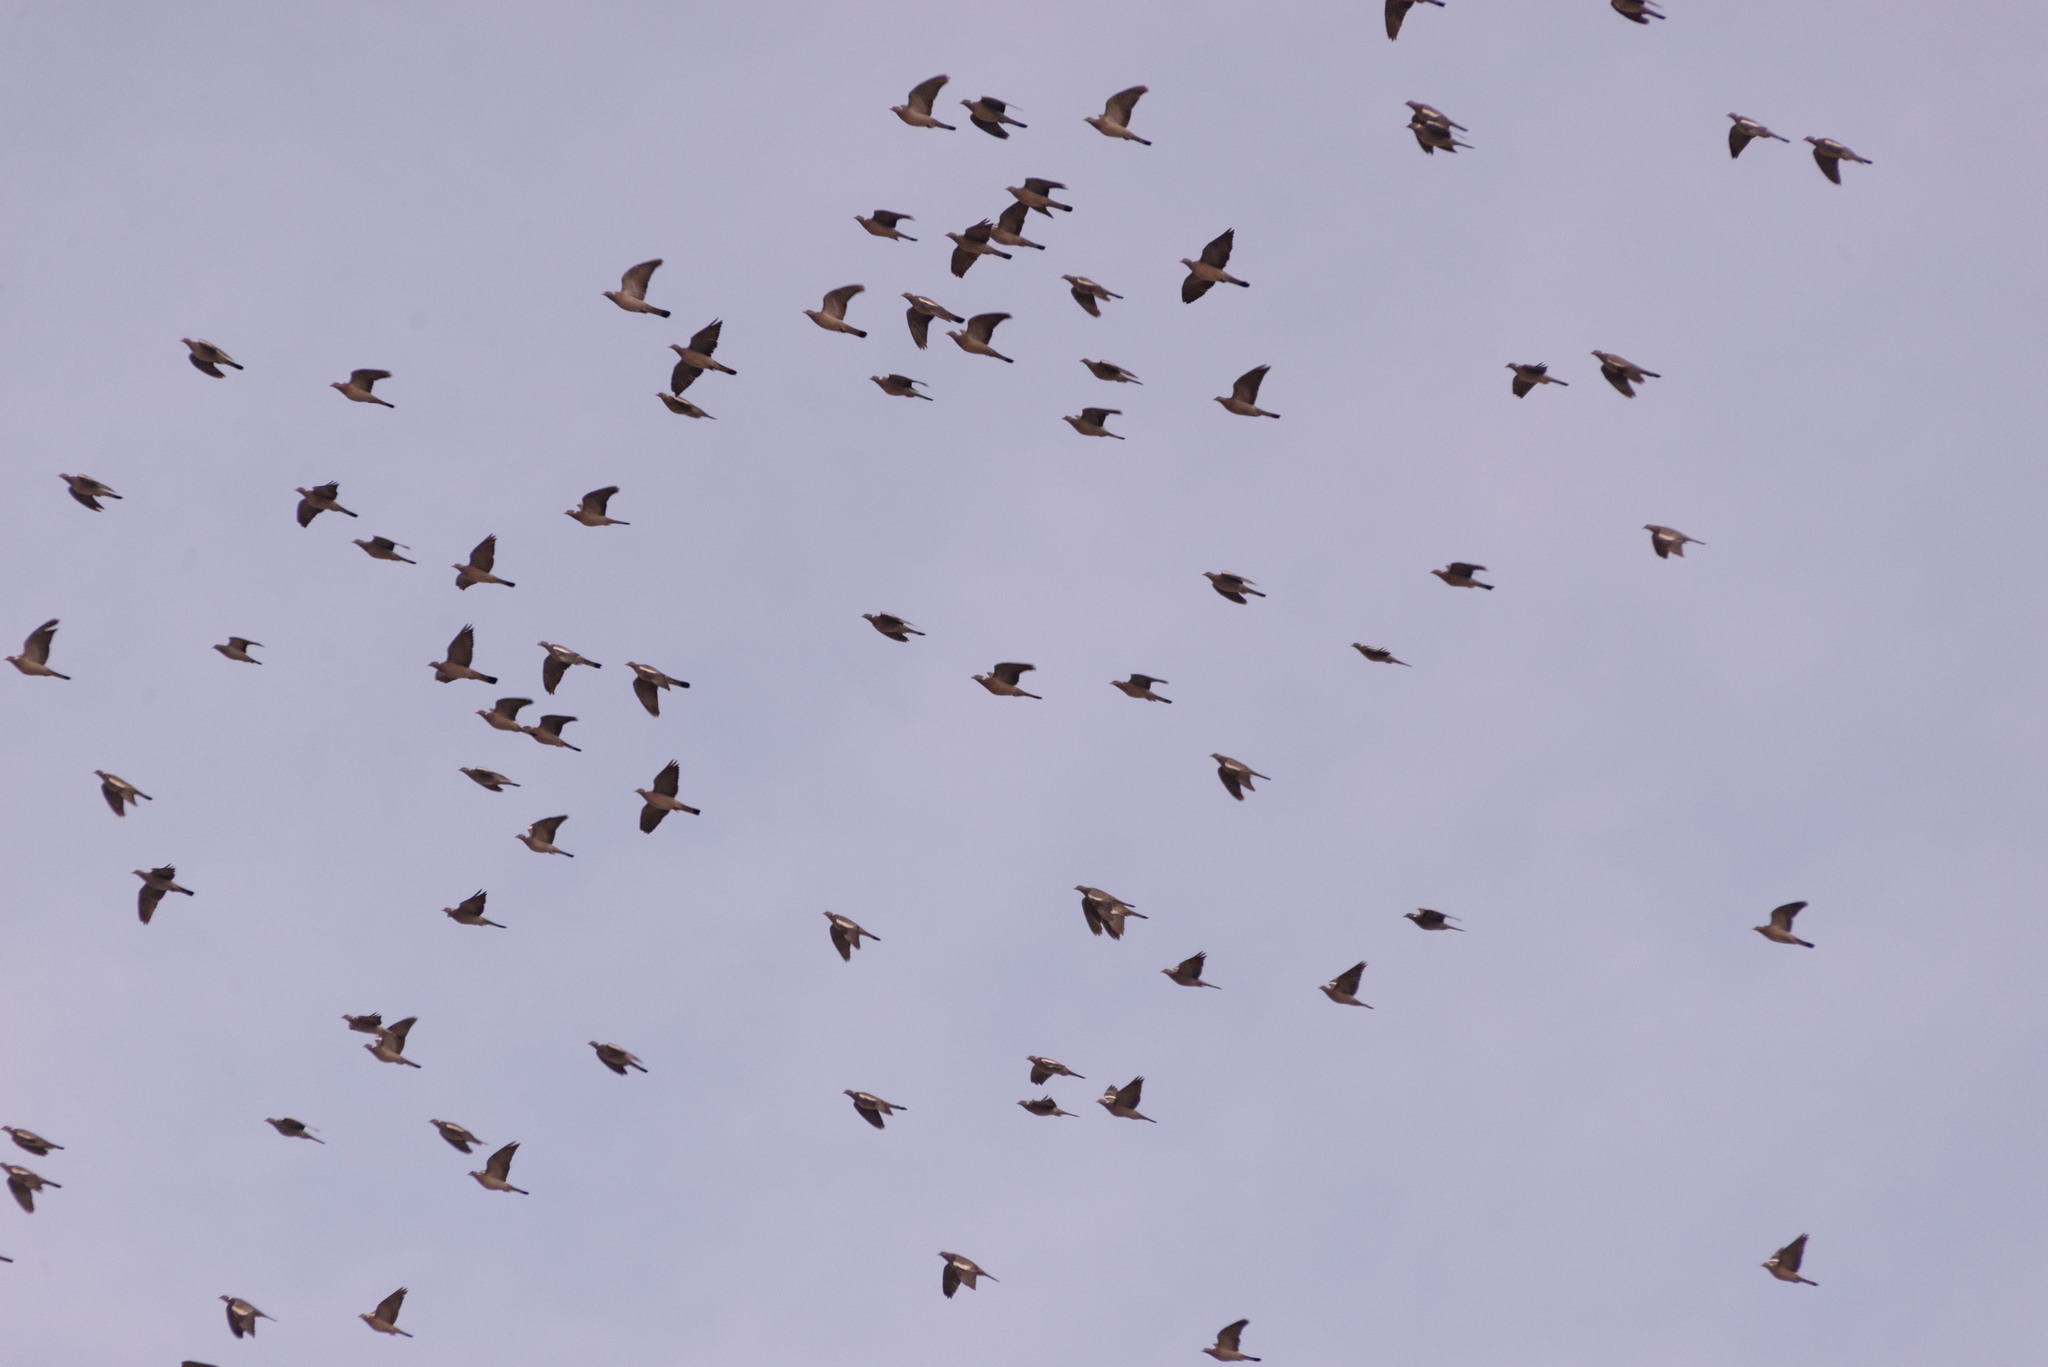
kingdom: Animalia
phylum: Chordata
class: Aves
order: Columbiformes
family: Columbidae
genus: Columba
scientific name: Columba palumbus
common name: Common wood pigeon
